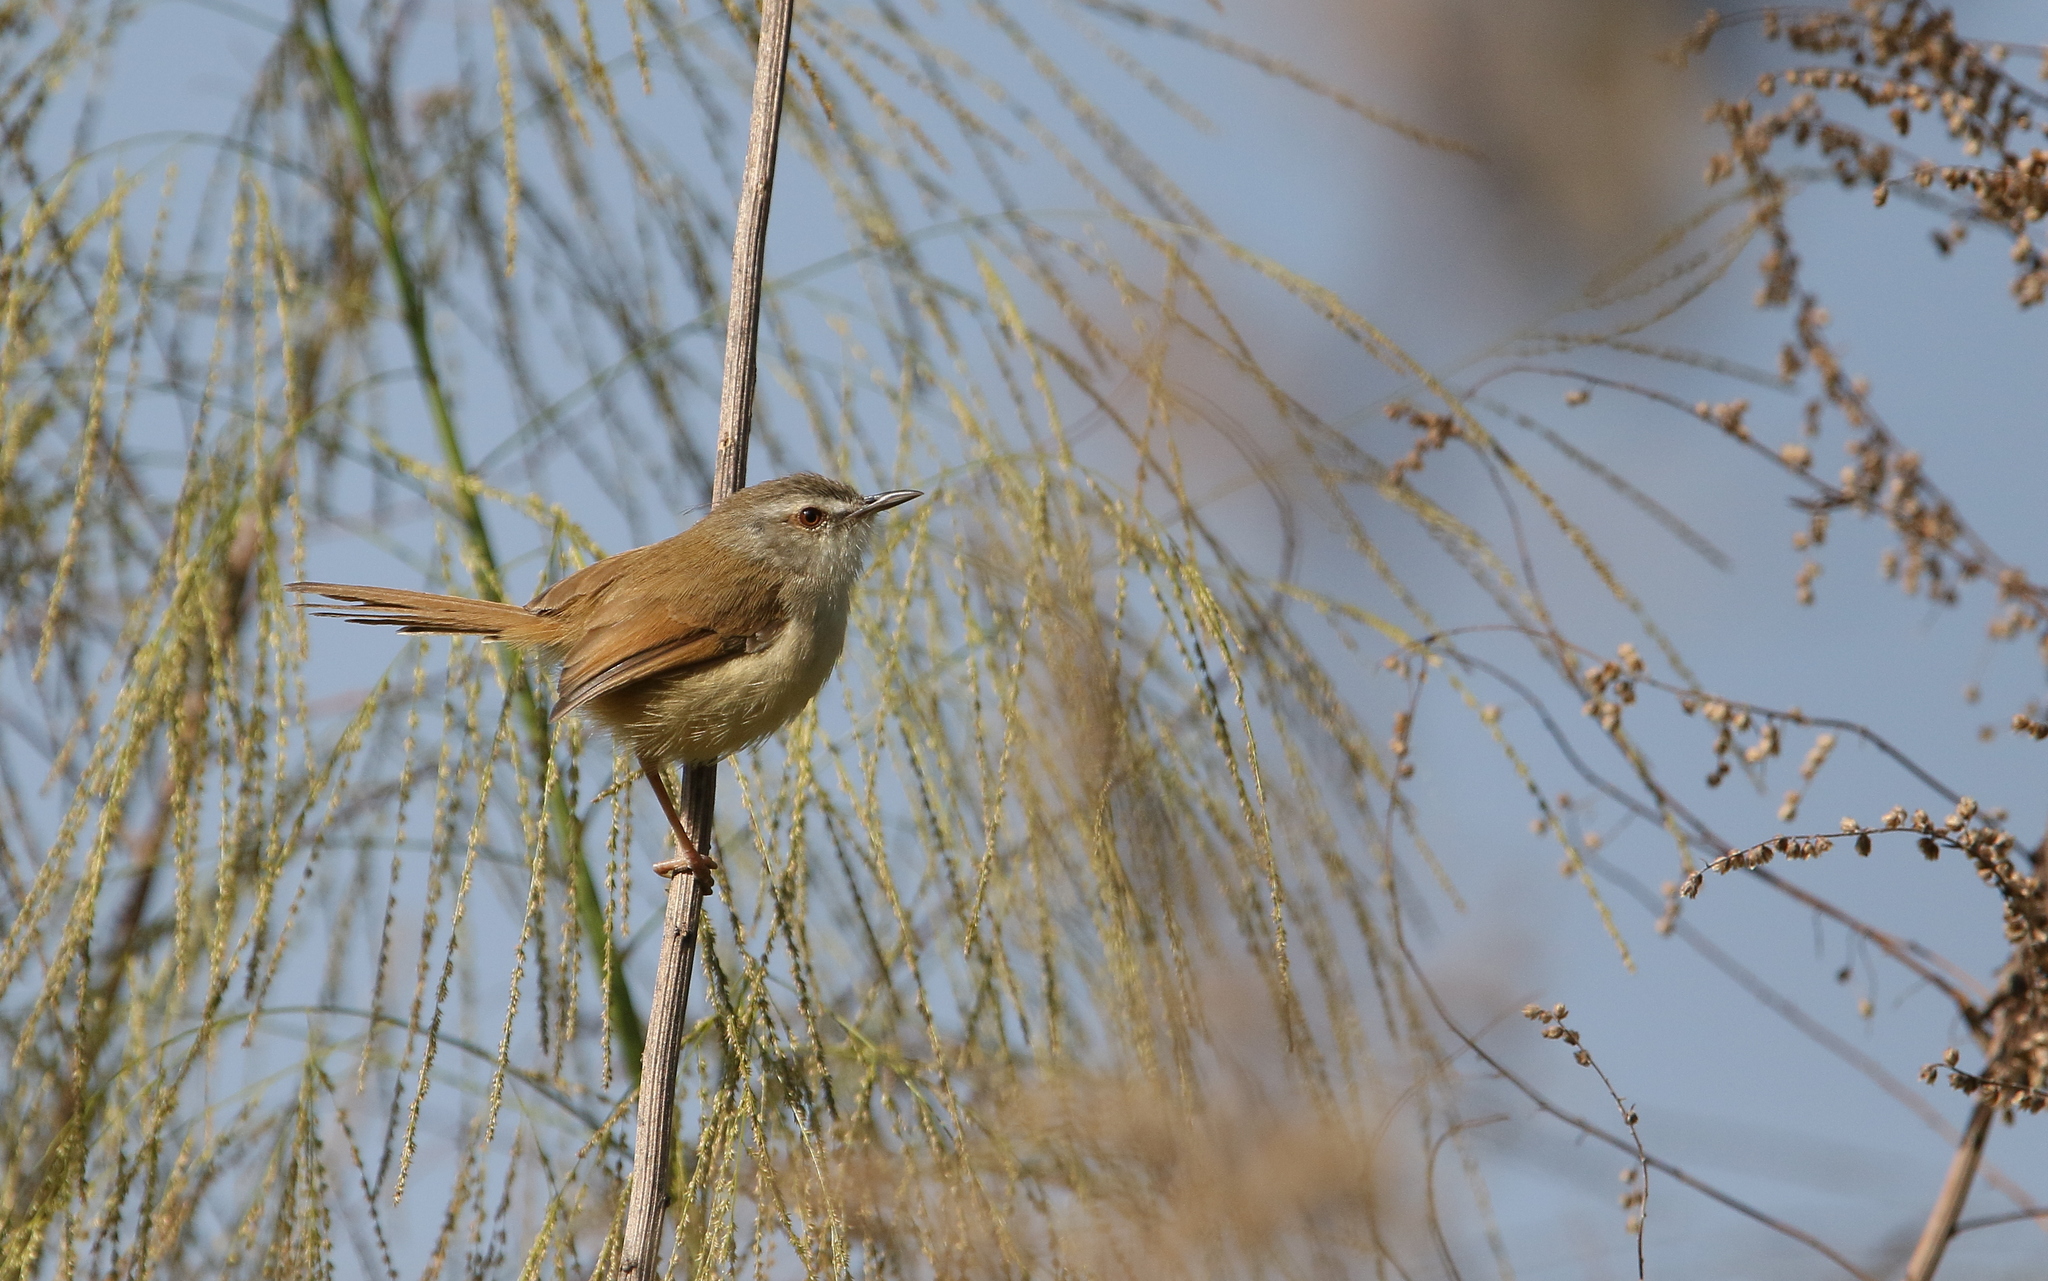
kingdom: Animalia
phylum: Chordata
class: Aves
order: Passeriformes
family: Cisticolidae
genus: Prinia
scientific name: Prinia rufescens
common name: Rufescent prinia
